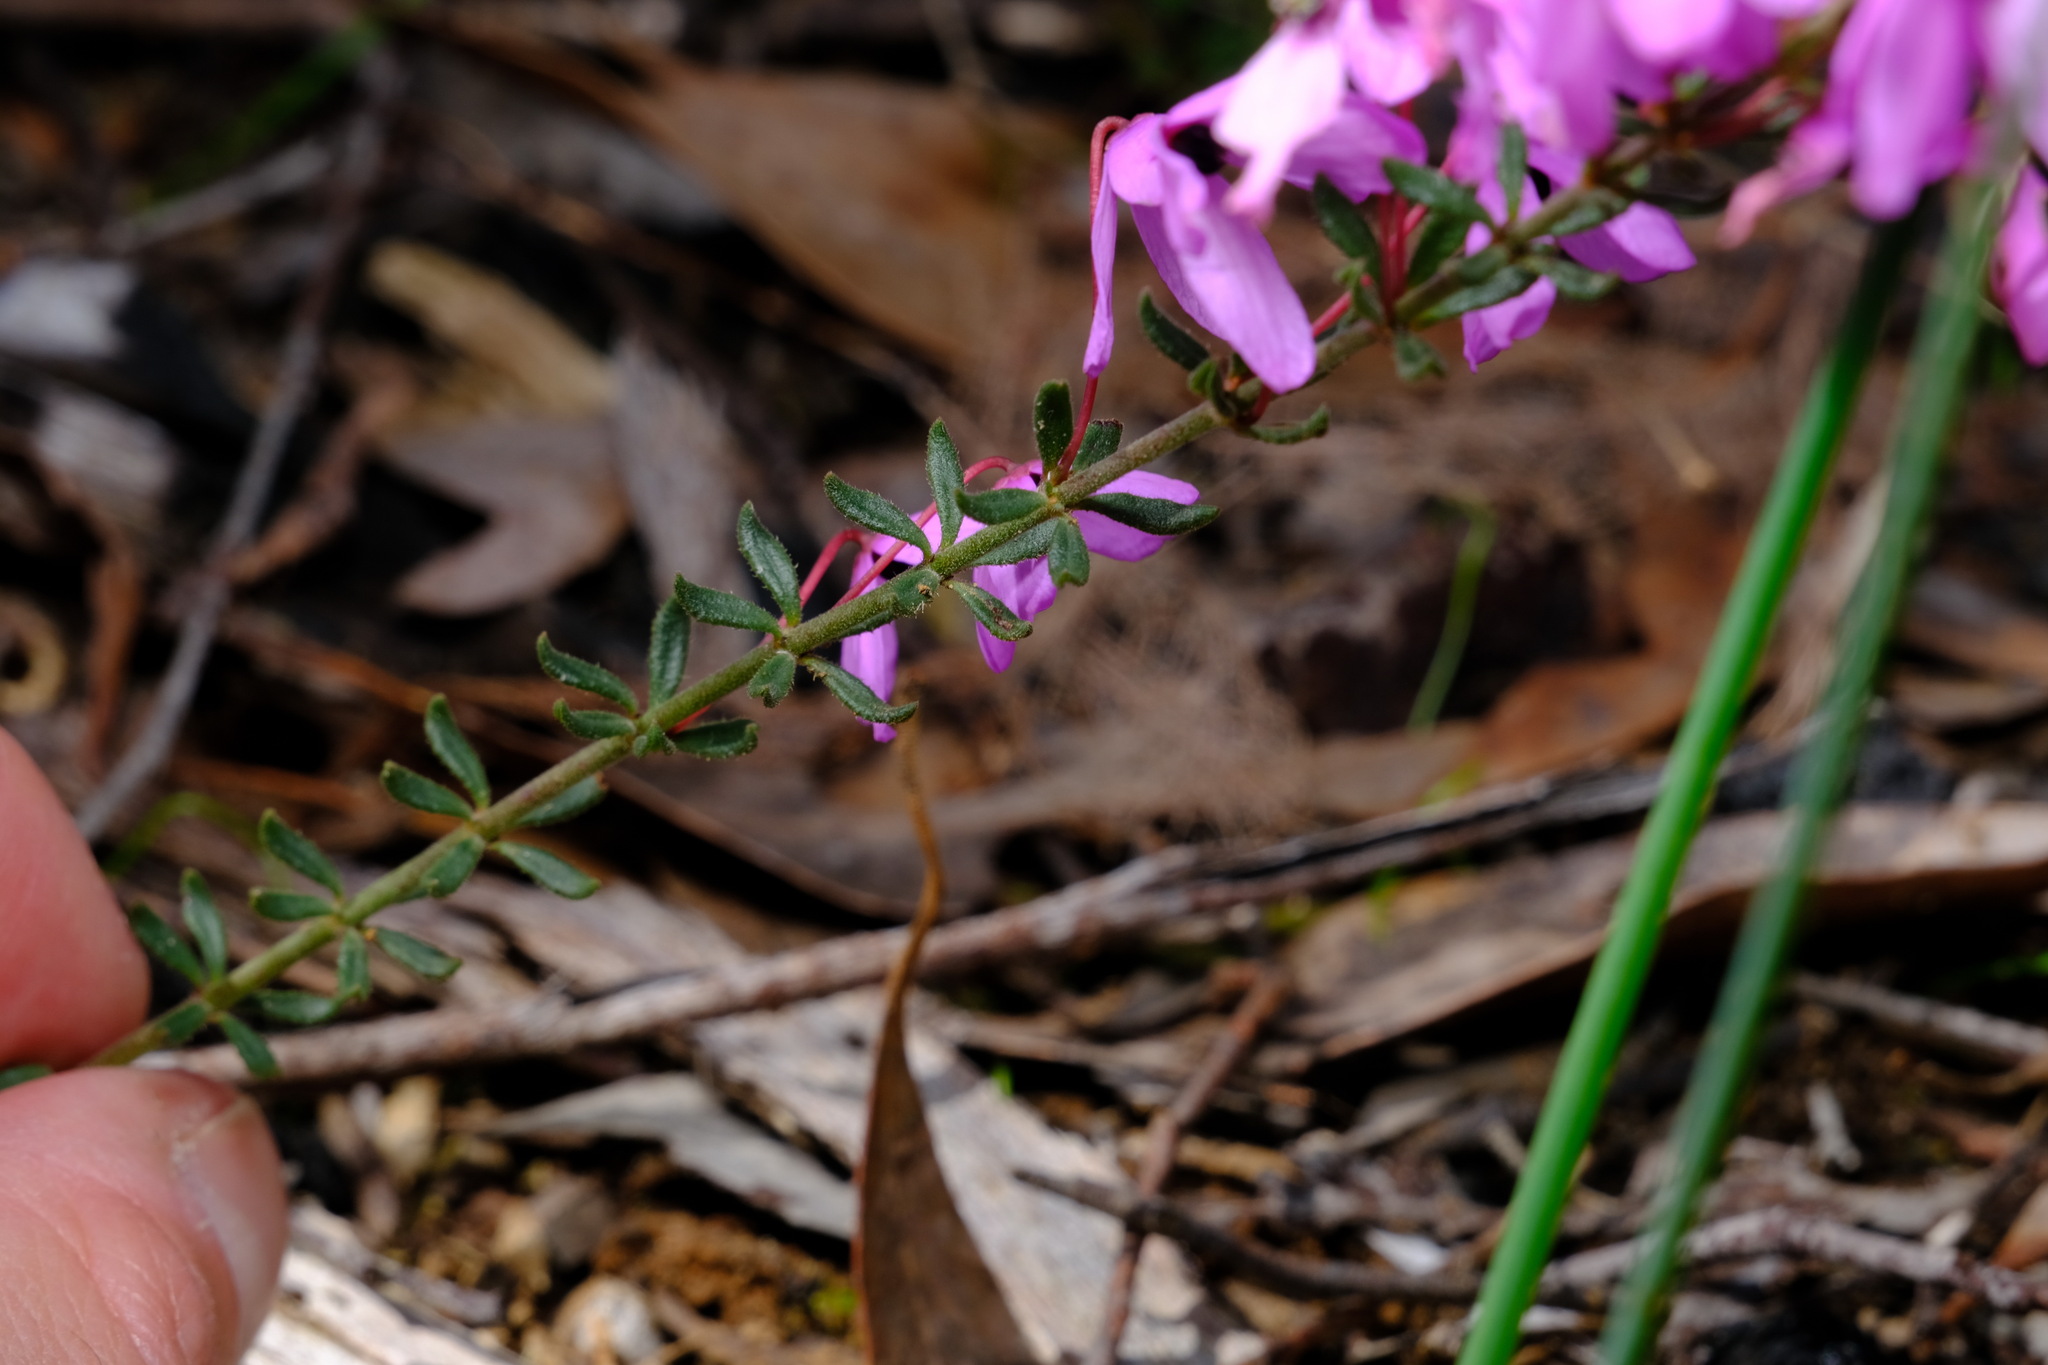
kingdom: Plantae
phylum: Tracheophyta
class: Magnoliopsida
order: Oxalidales
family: Elaeocarpaceae
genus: Tetratheca
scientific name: Tetratheca bauerifolia
